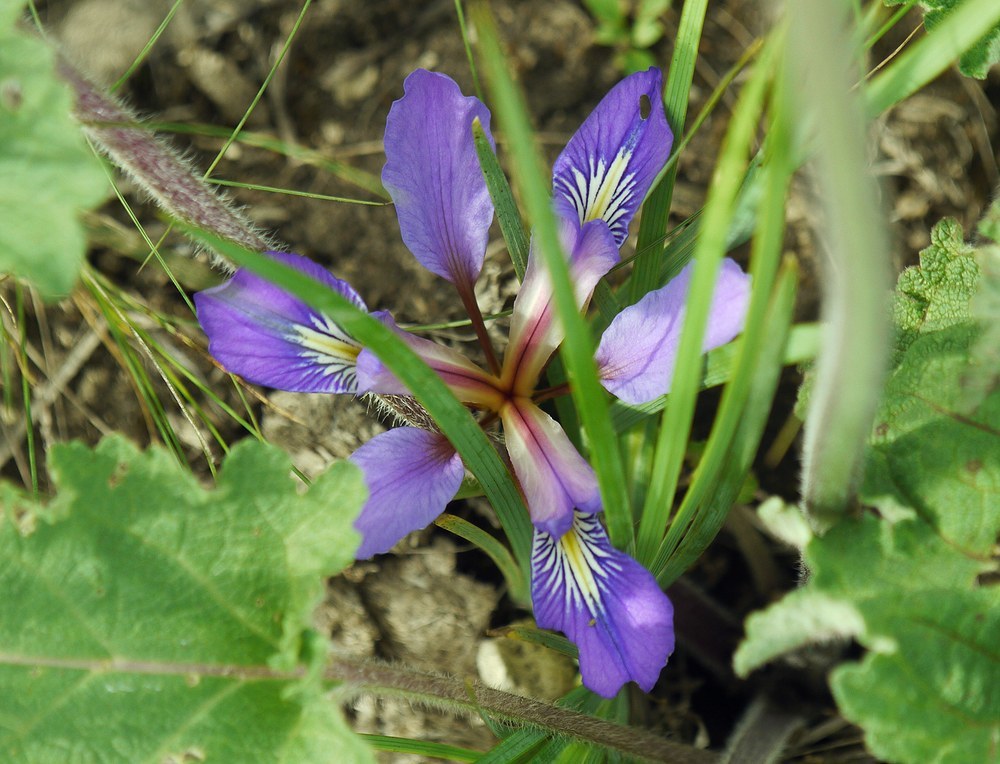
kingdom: Plantae
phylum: Tracheophyta
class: Liliopsida
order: Asparagales
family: Iridaceae
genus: Iris
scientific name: Iris pontica
